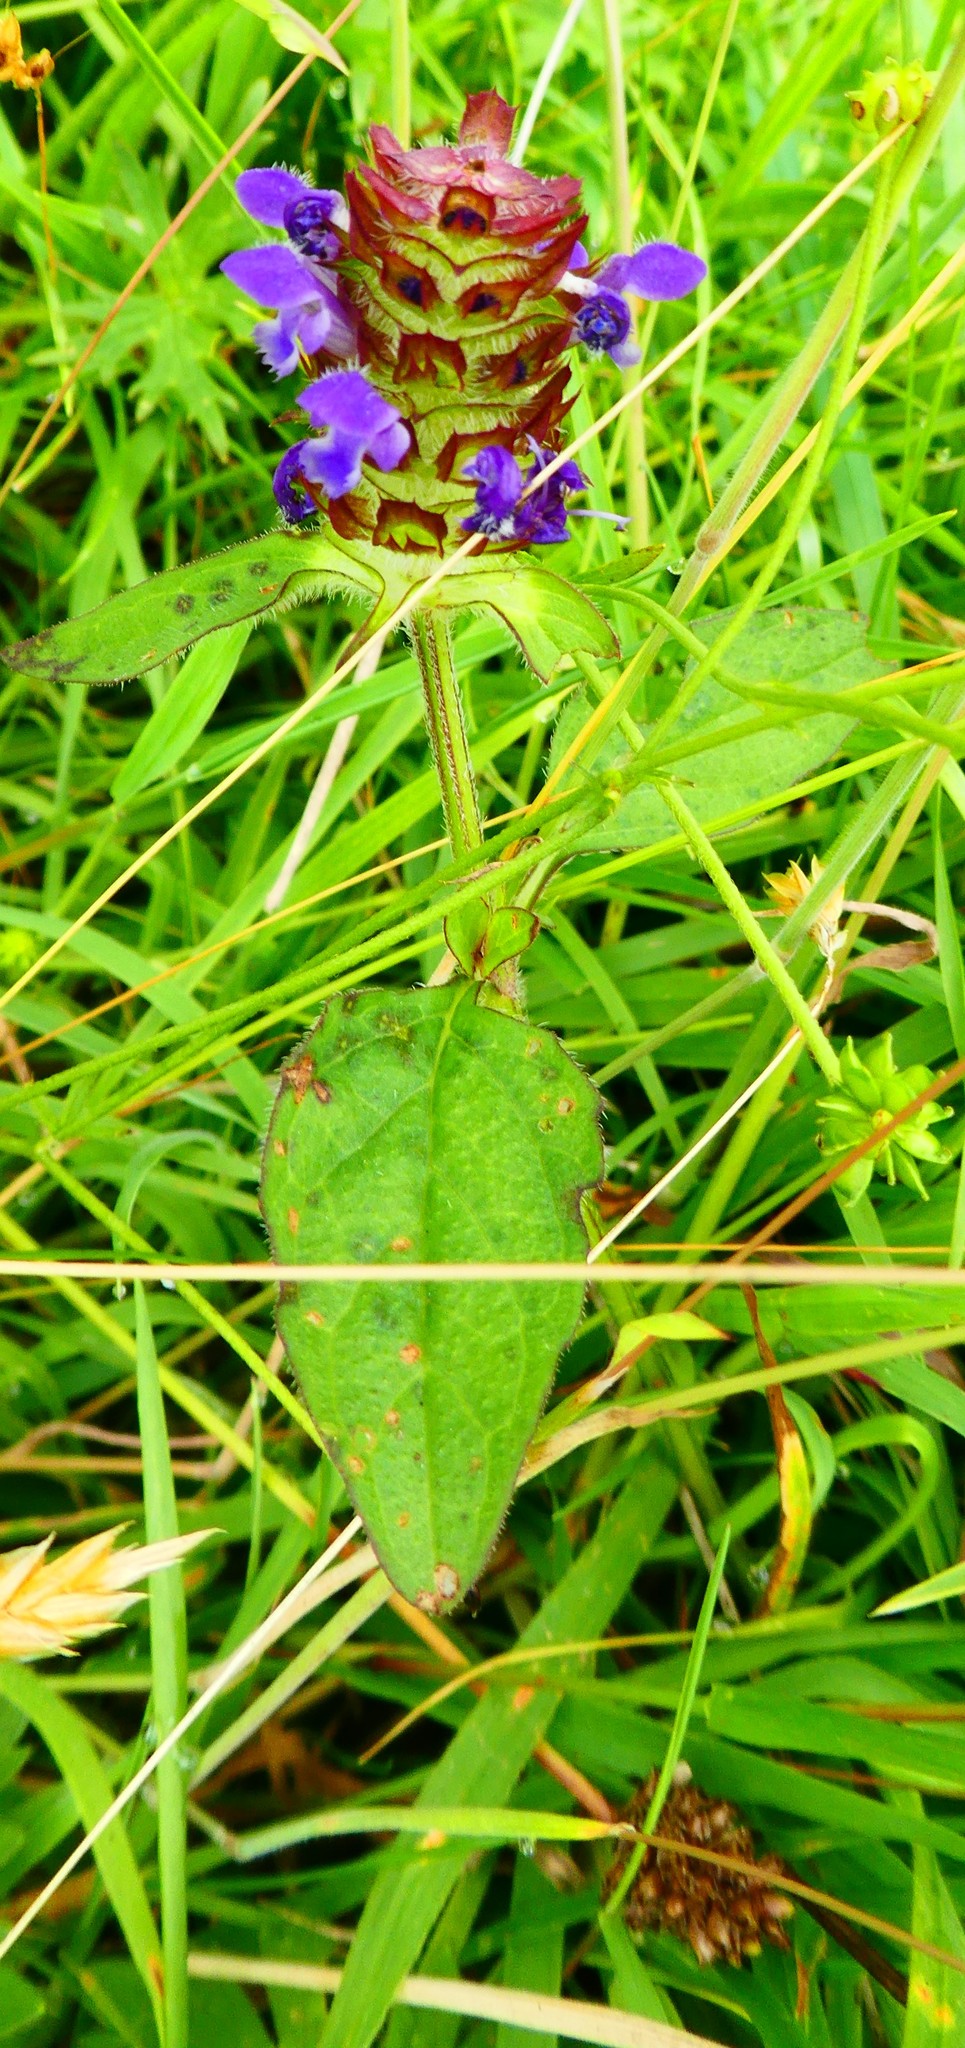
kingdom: Plantae
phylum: Tracheophyta
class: Magnoliopsida
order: Lamiales
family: Lamiaceae
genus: Prunella
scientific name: Prunella vulgaris
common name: Heal-all
